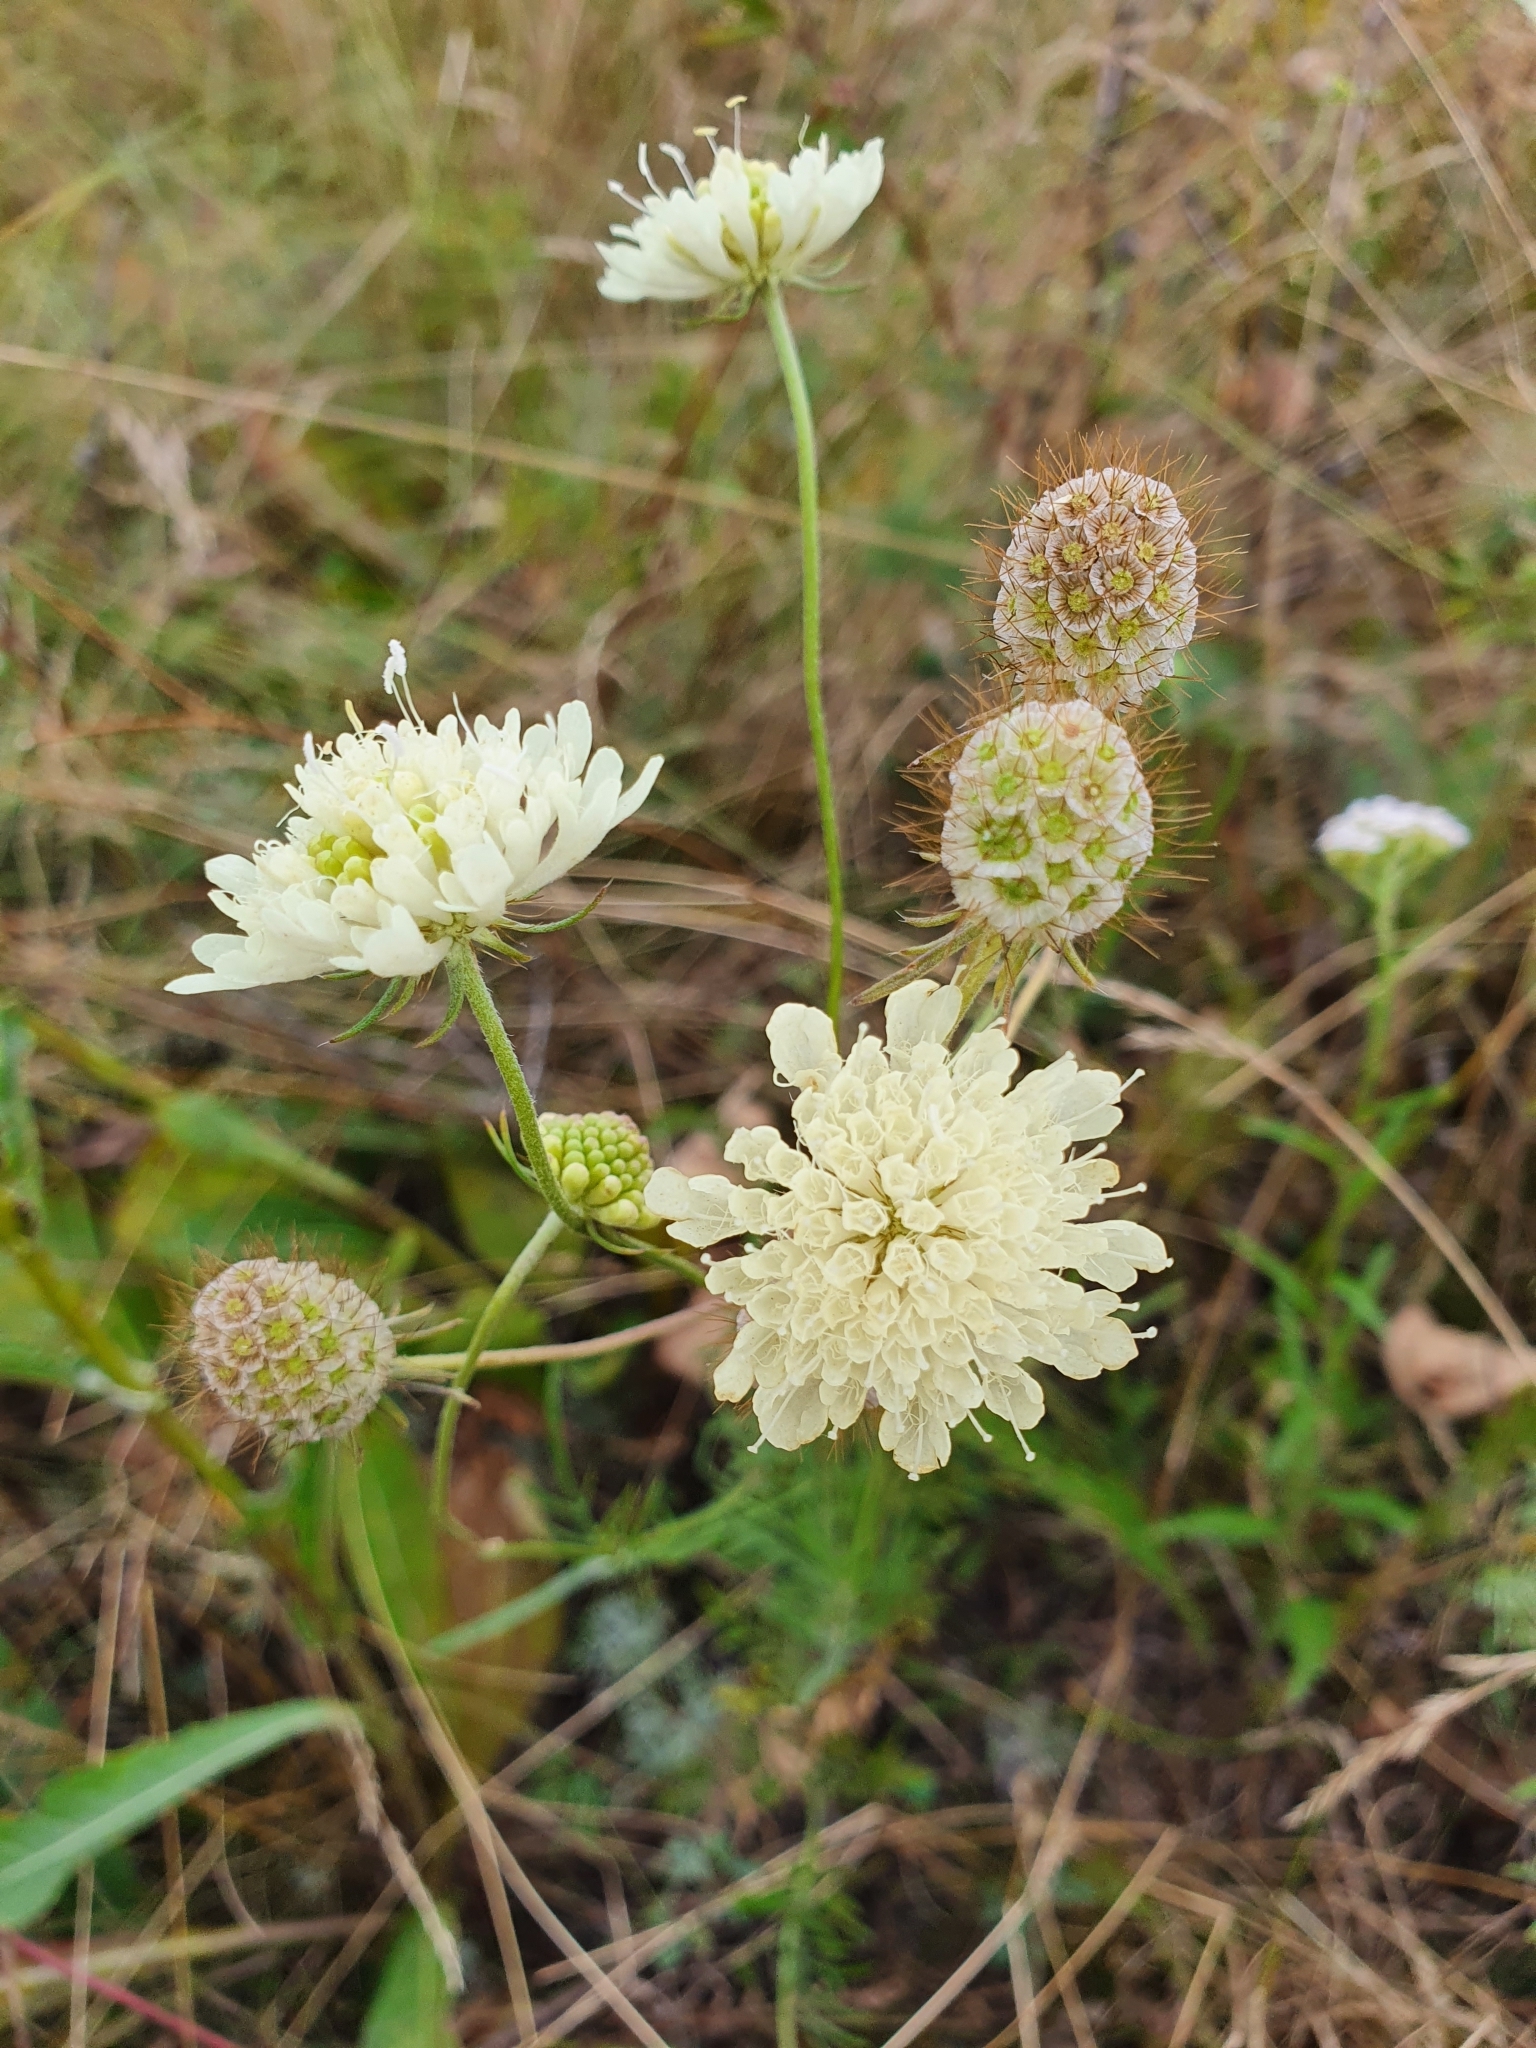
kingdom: Plantae
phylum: Tracheophyta
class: Magnoliopsida
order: Dipsacales
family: Caprifoliaceae
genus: Scabiosa
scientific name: Scabiosa ochroleuca
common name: Cream pincushions
